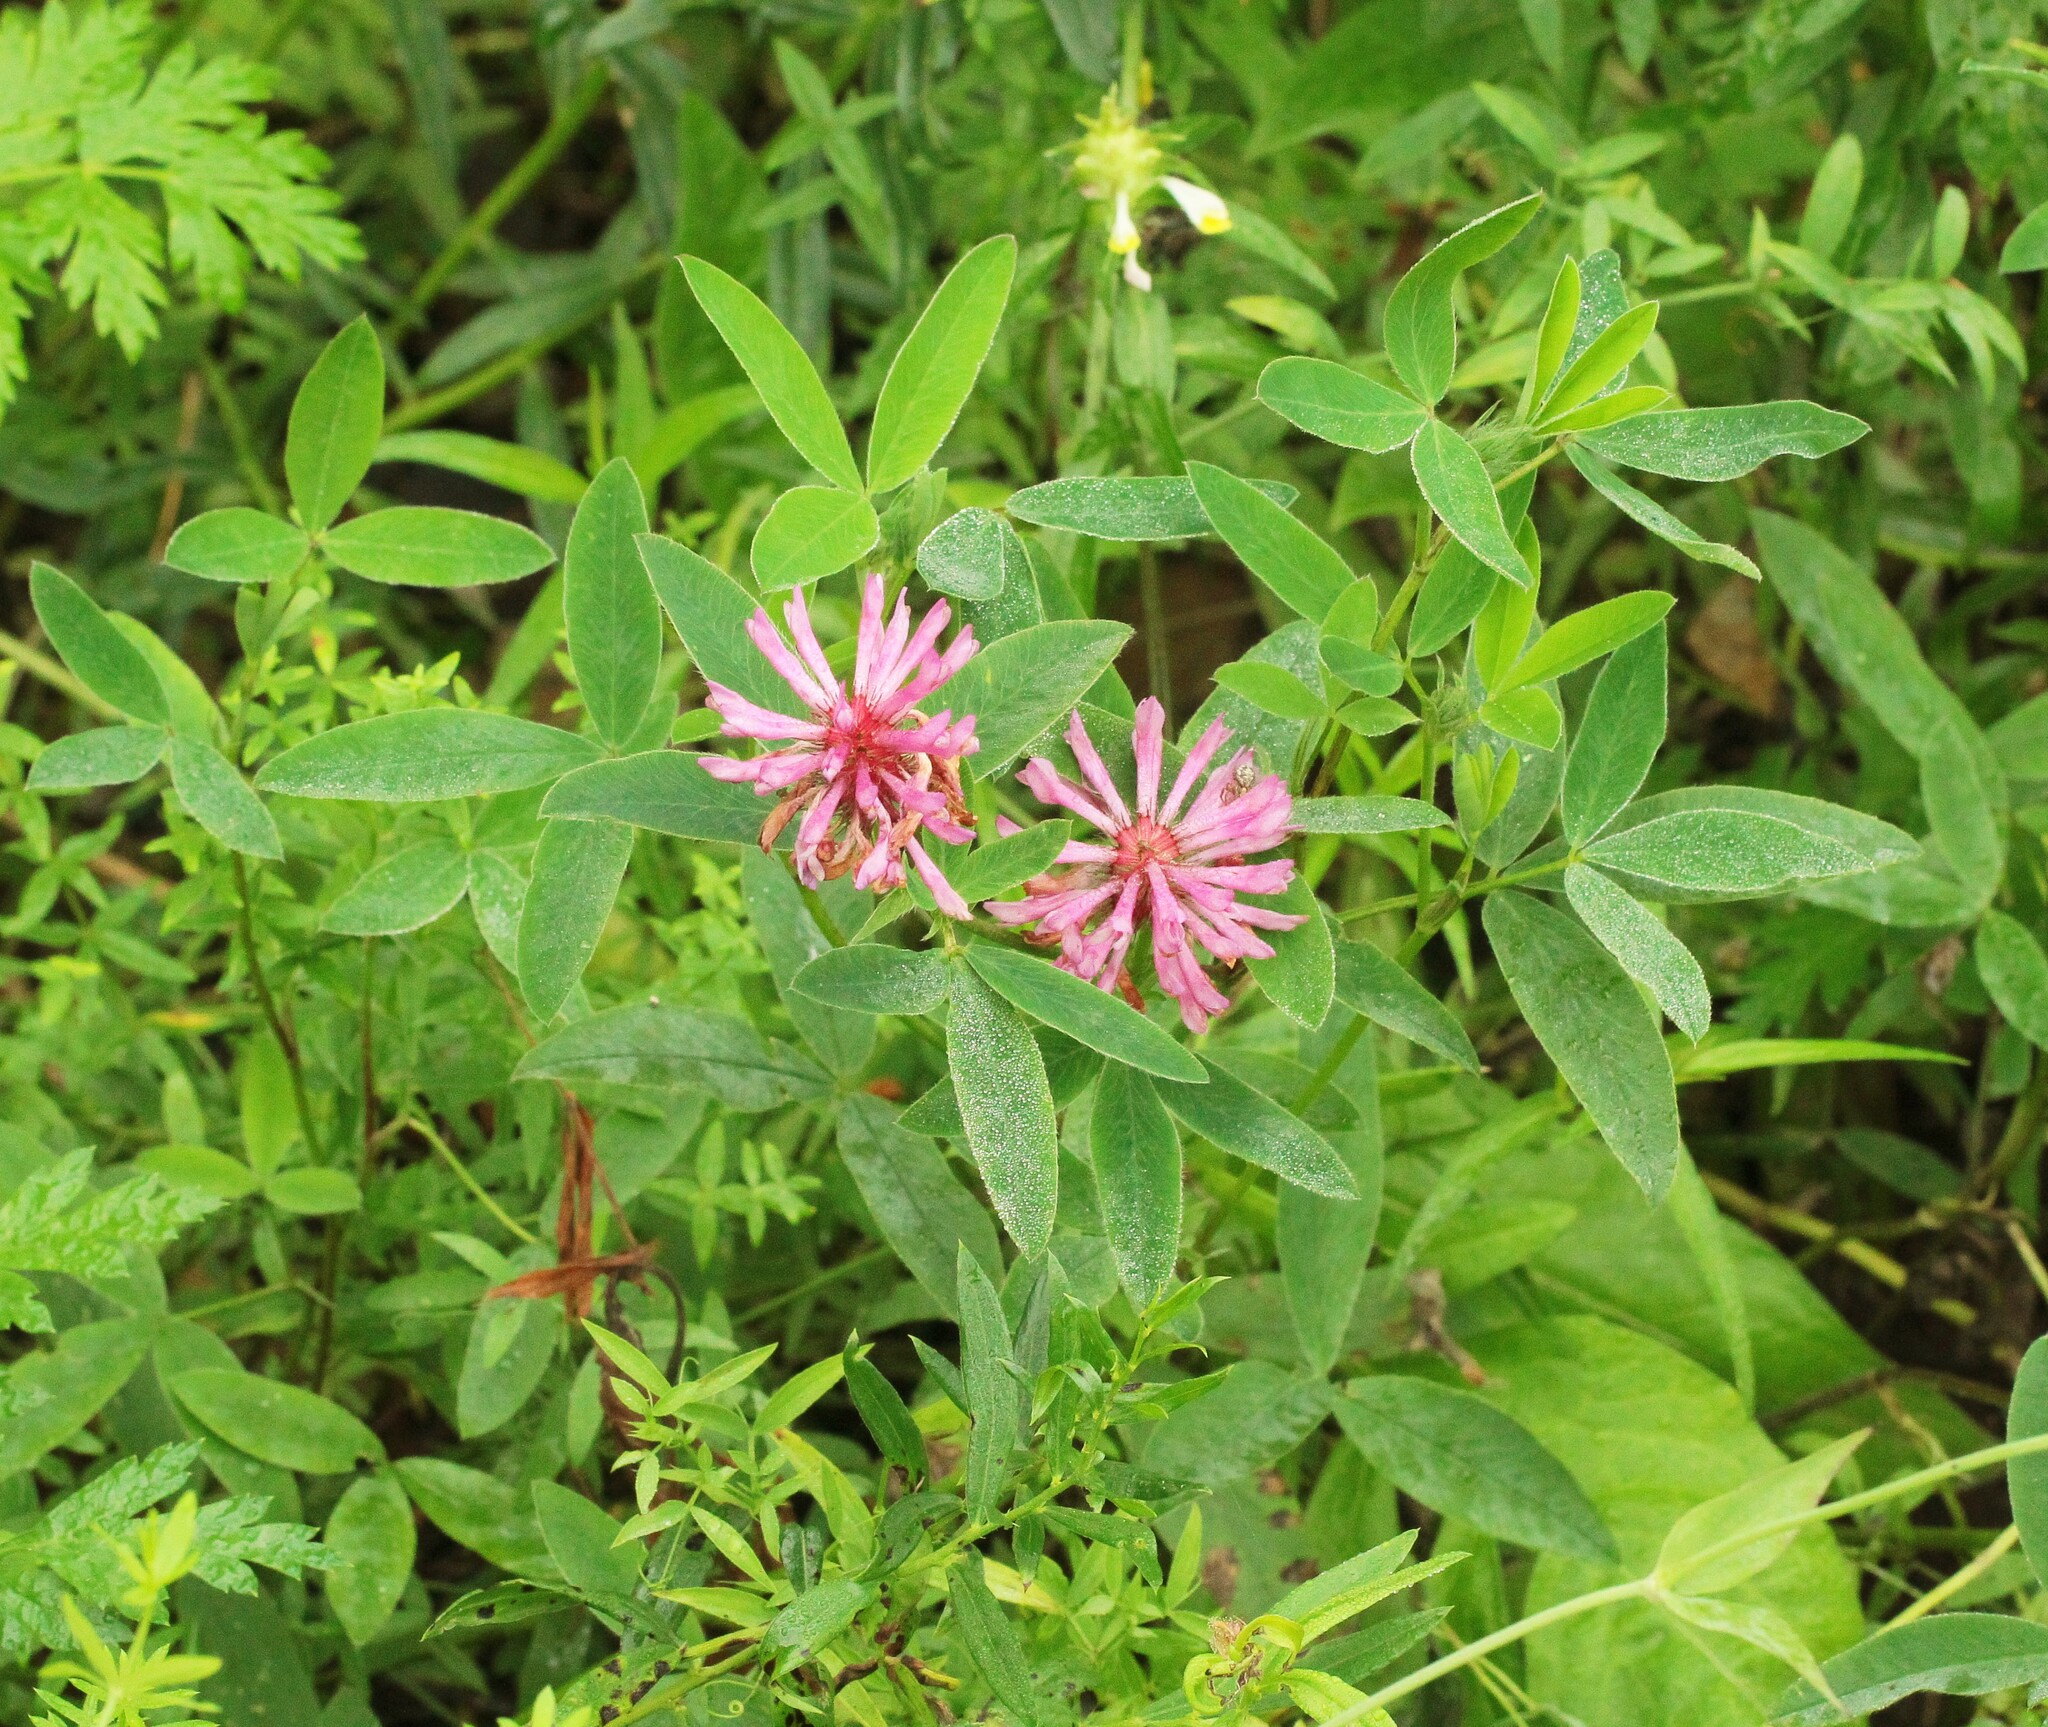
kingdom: Plantae
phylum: Tracheophyta
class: Magnoliopsida
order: Fabales
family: Fabaceae
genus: Trifolium
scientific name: Trifolium medium
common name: Zigzag clover
